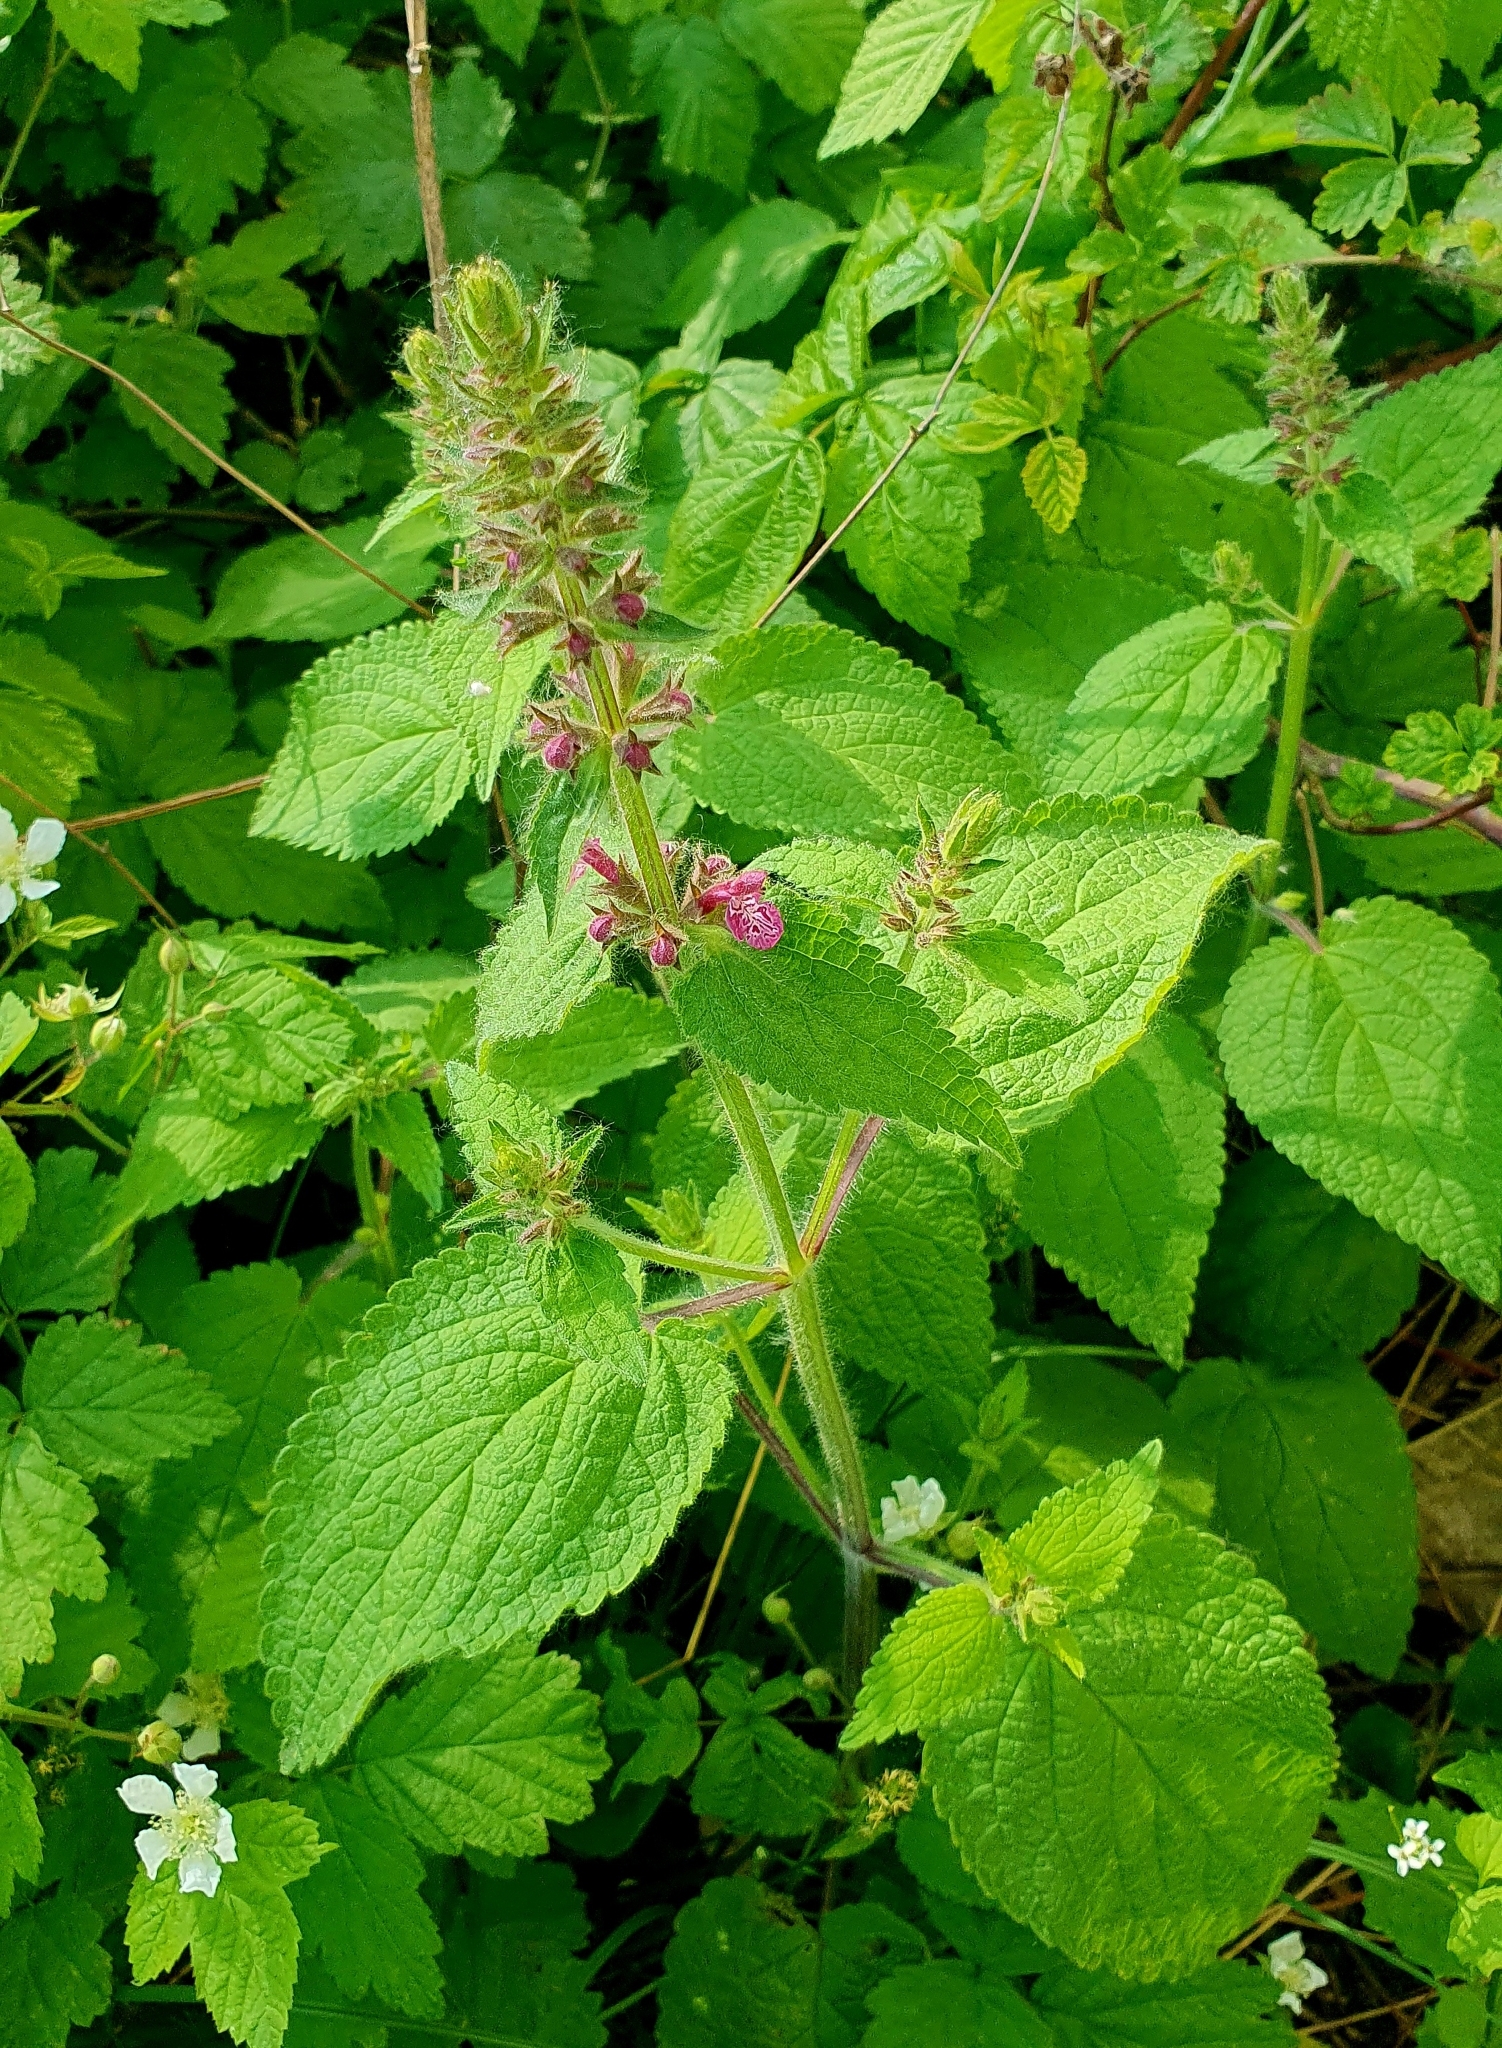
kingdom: Plantae
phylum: Tracheophyta
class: Magnoliopsida
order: Lamiales
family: Lamiaceae
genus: Stachys
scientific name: Stachys sylvatica
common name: Hedge woundwort
